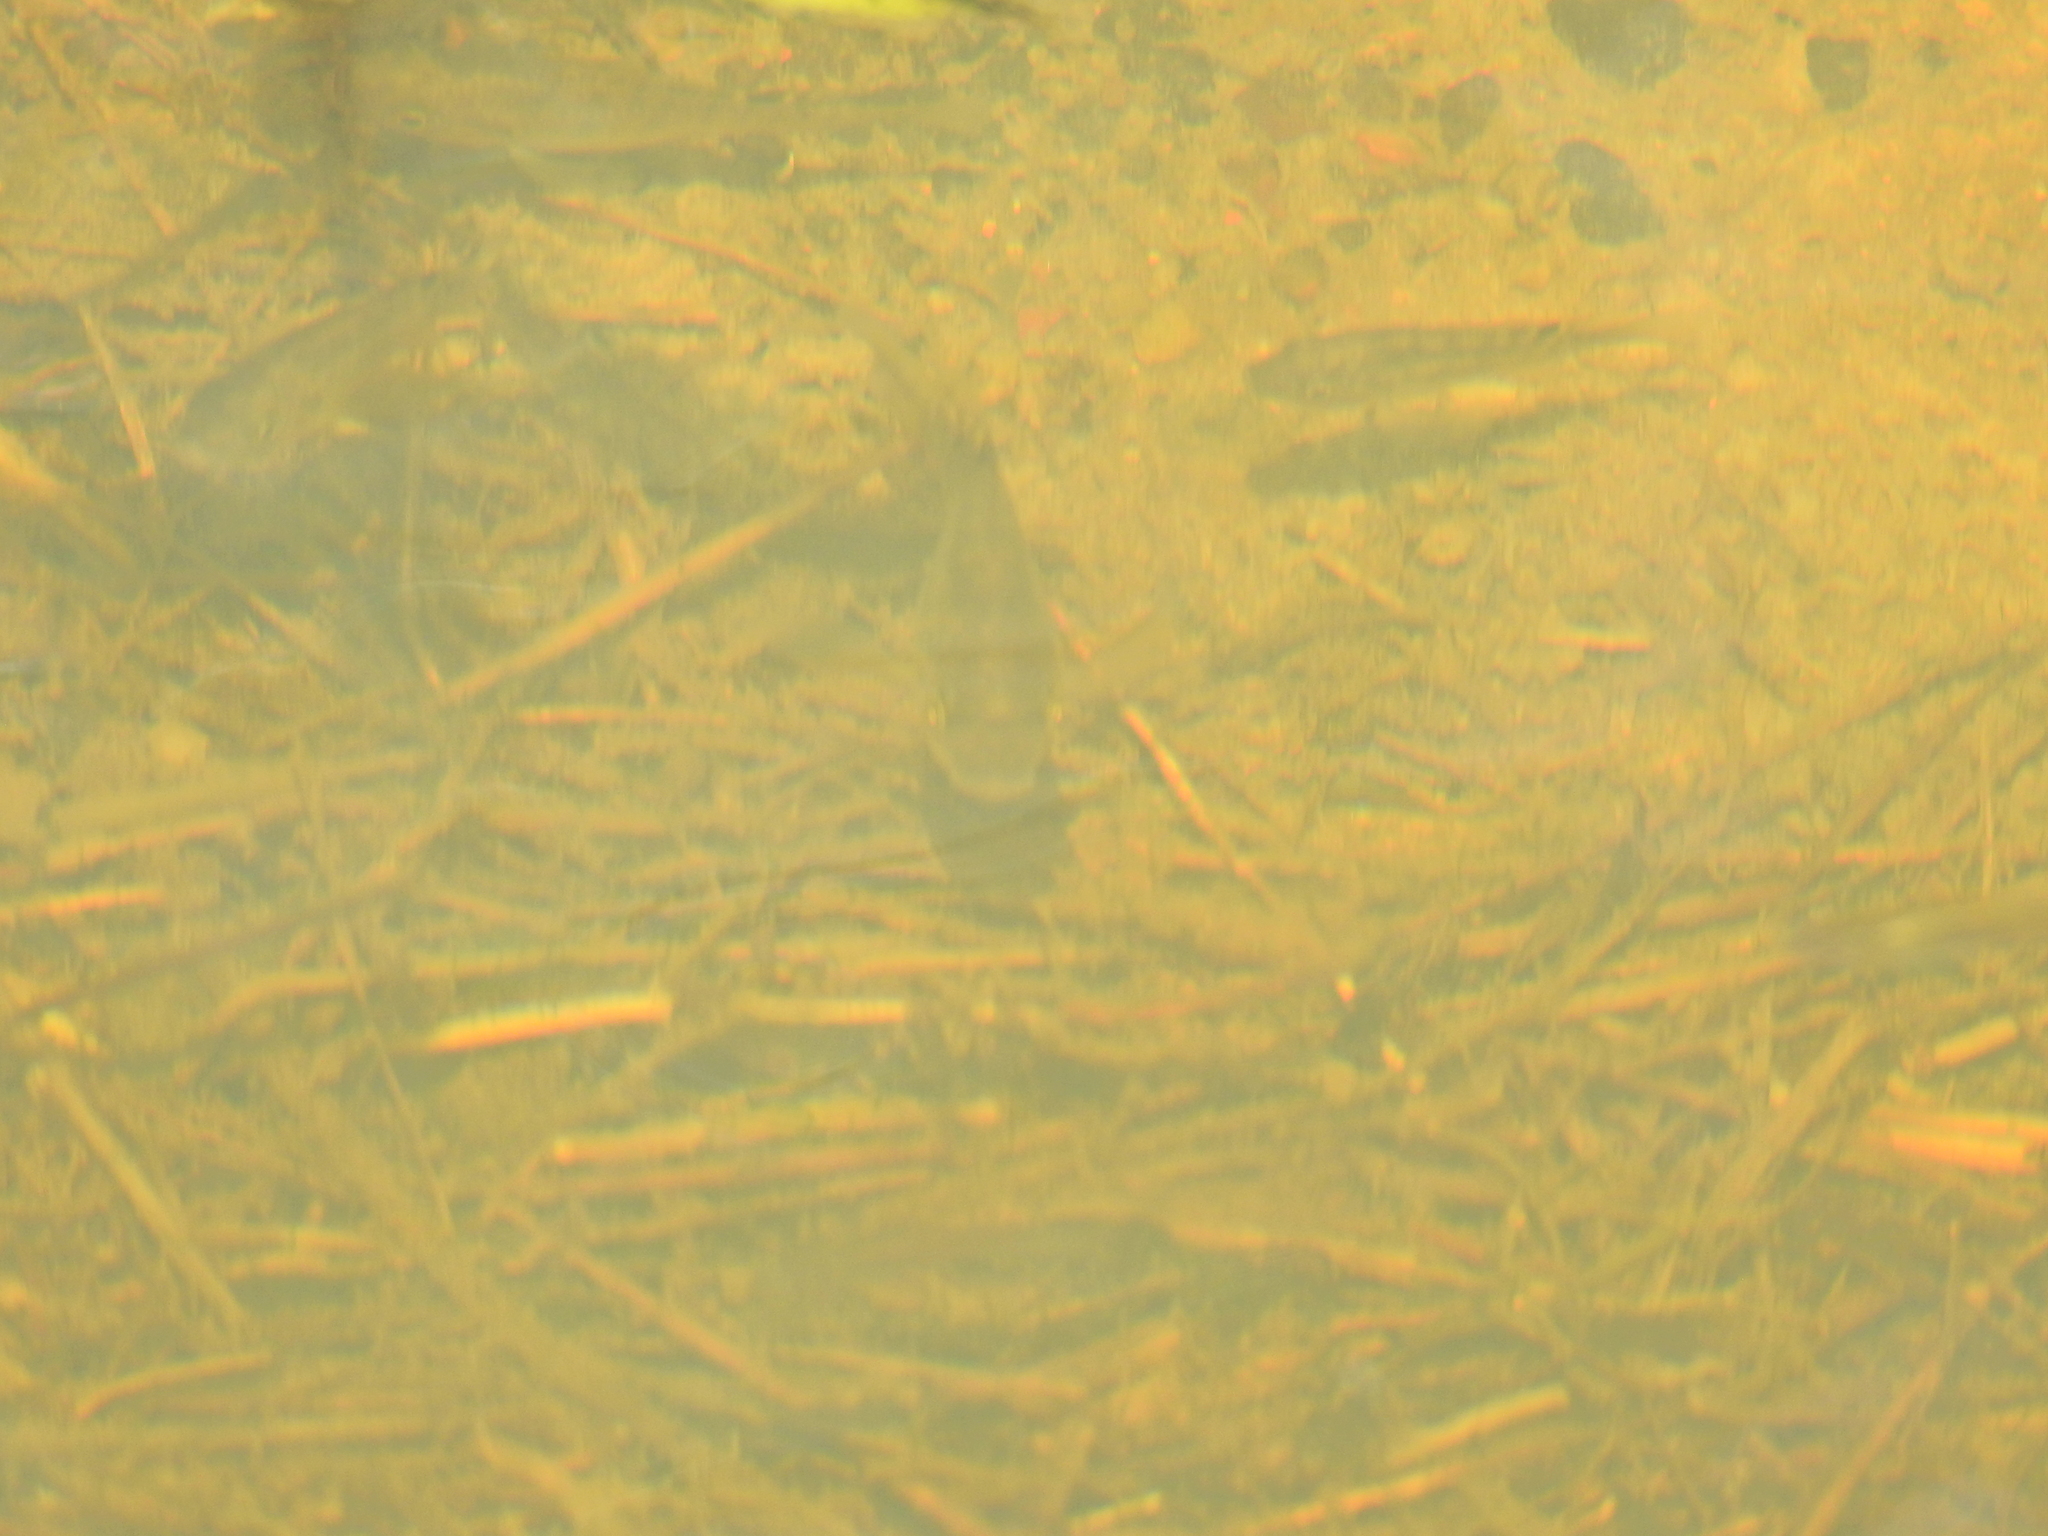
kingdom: Animalia
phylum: Chordata
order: Perciformes
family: Cichlidae
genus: Oreochromis
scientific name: Oreochromis mossambicus
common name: Mozambique tilapia
